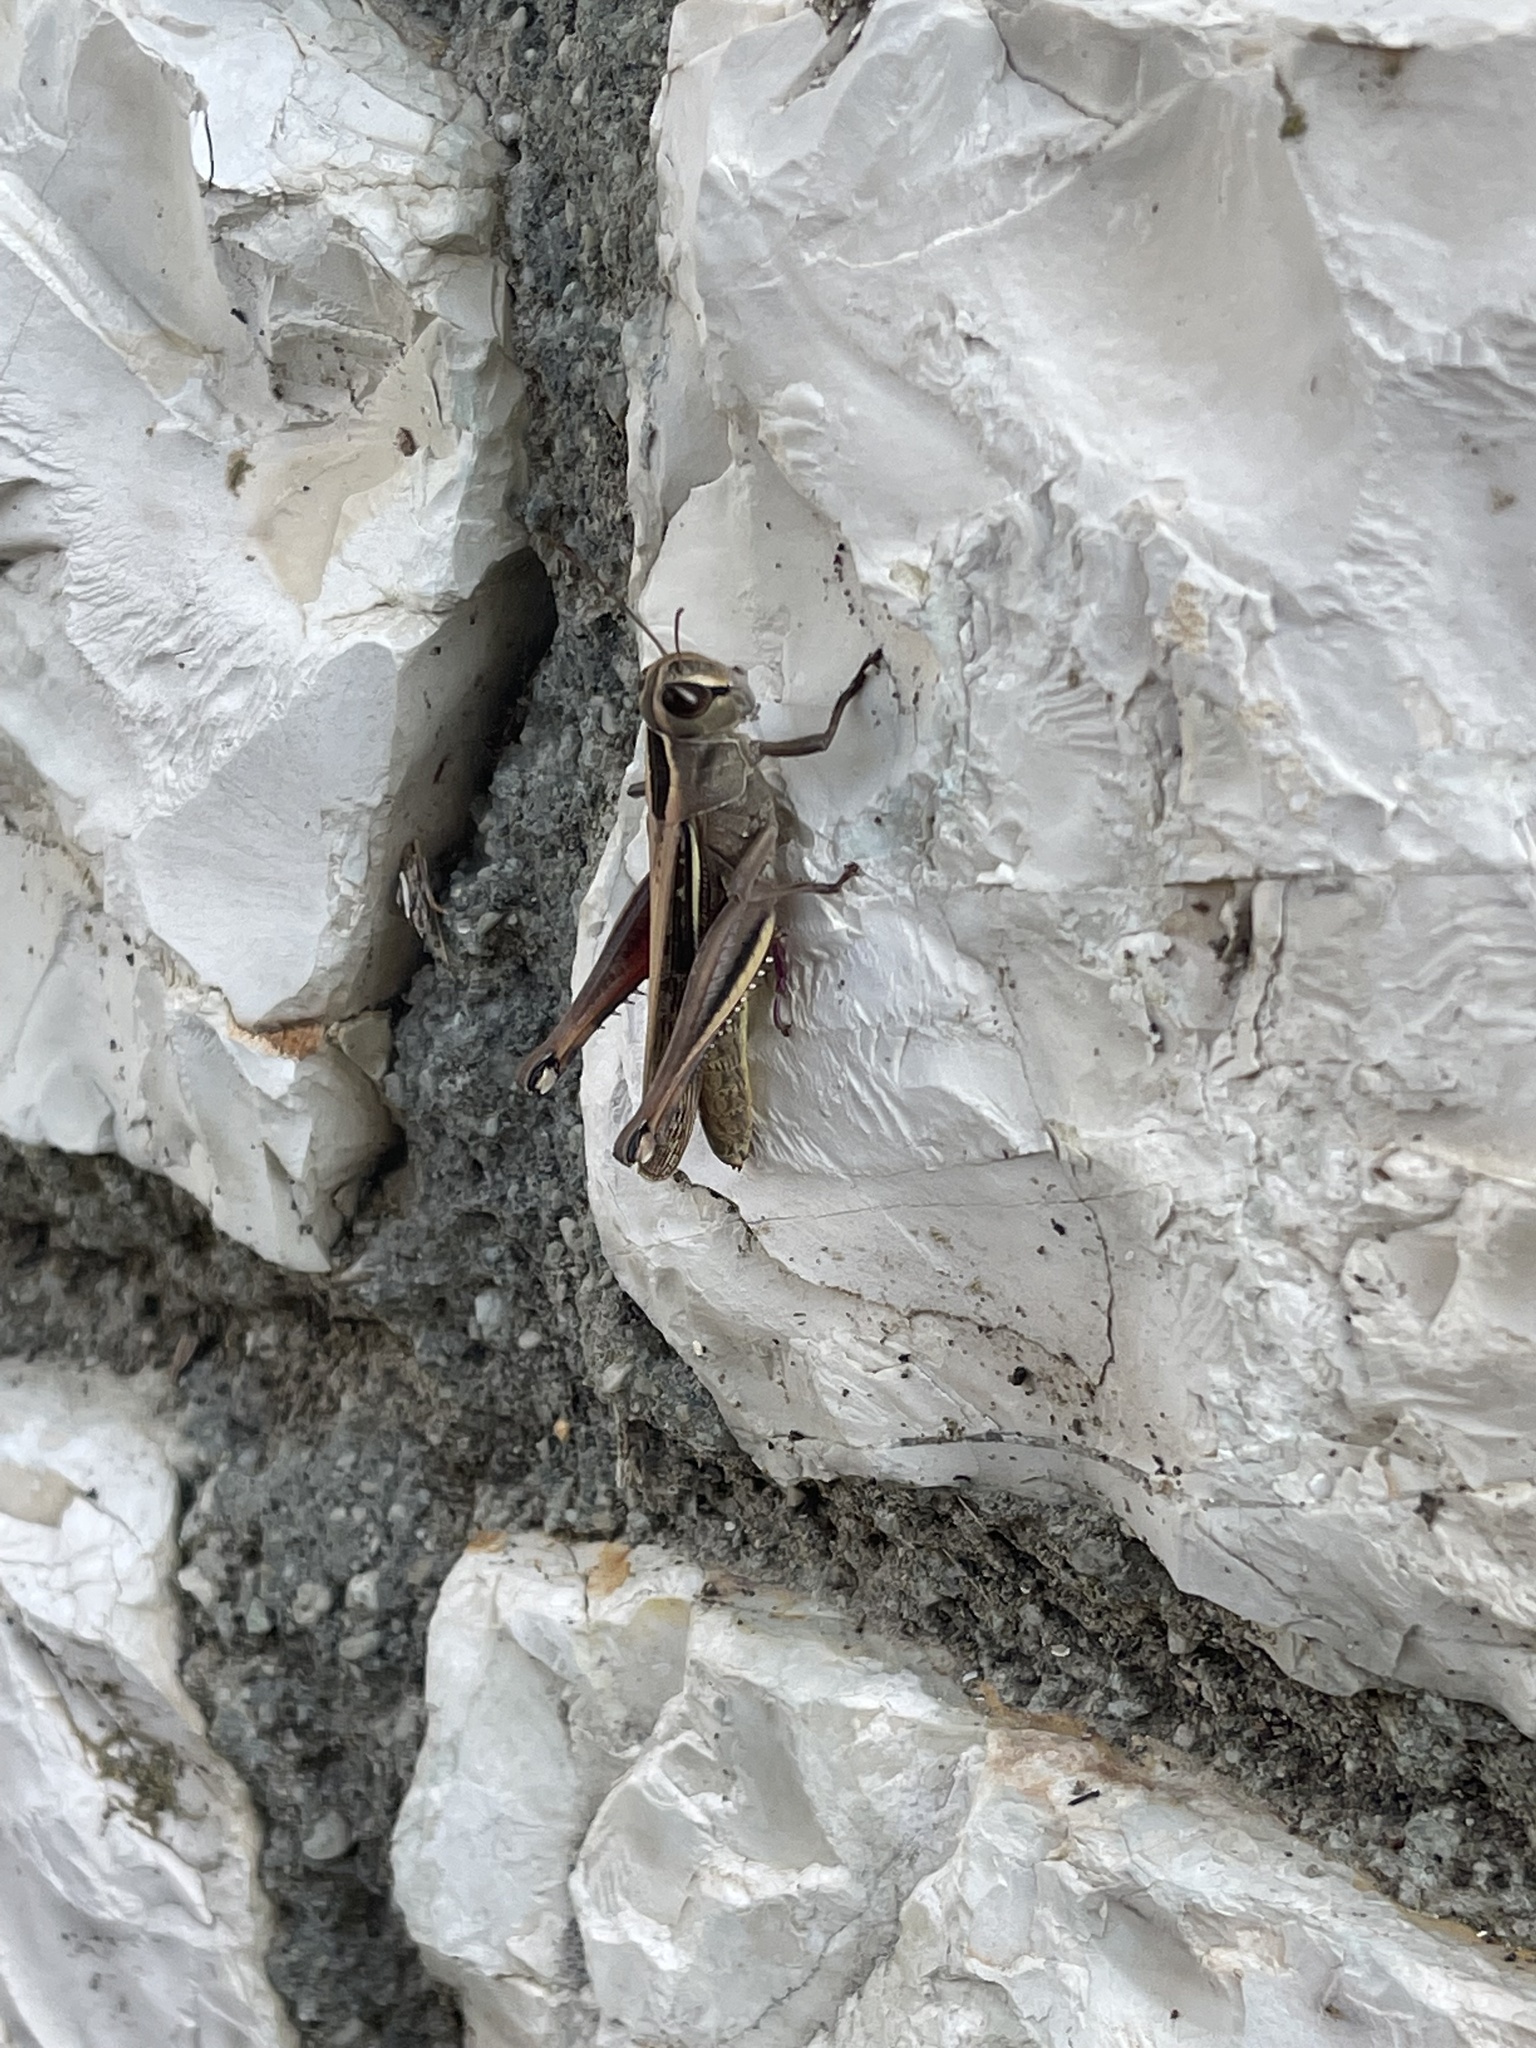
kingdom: Animalia
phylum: Arthropoda
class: Insecta
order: Orthoptera
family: Acrididae
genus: Eyprepocnemis
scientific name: Eyprepocnemis plorans
